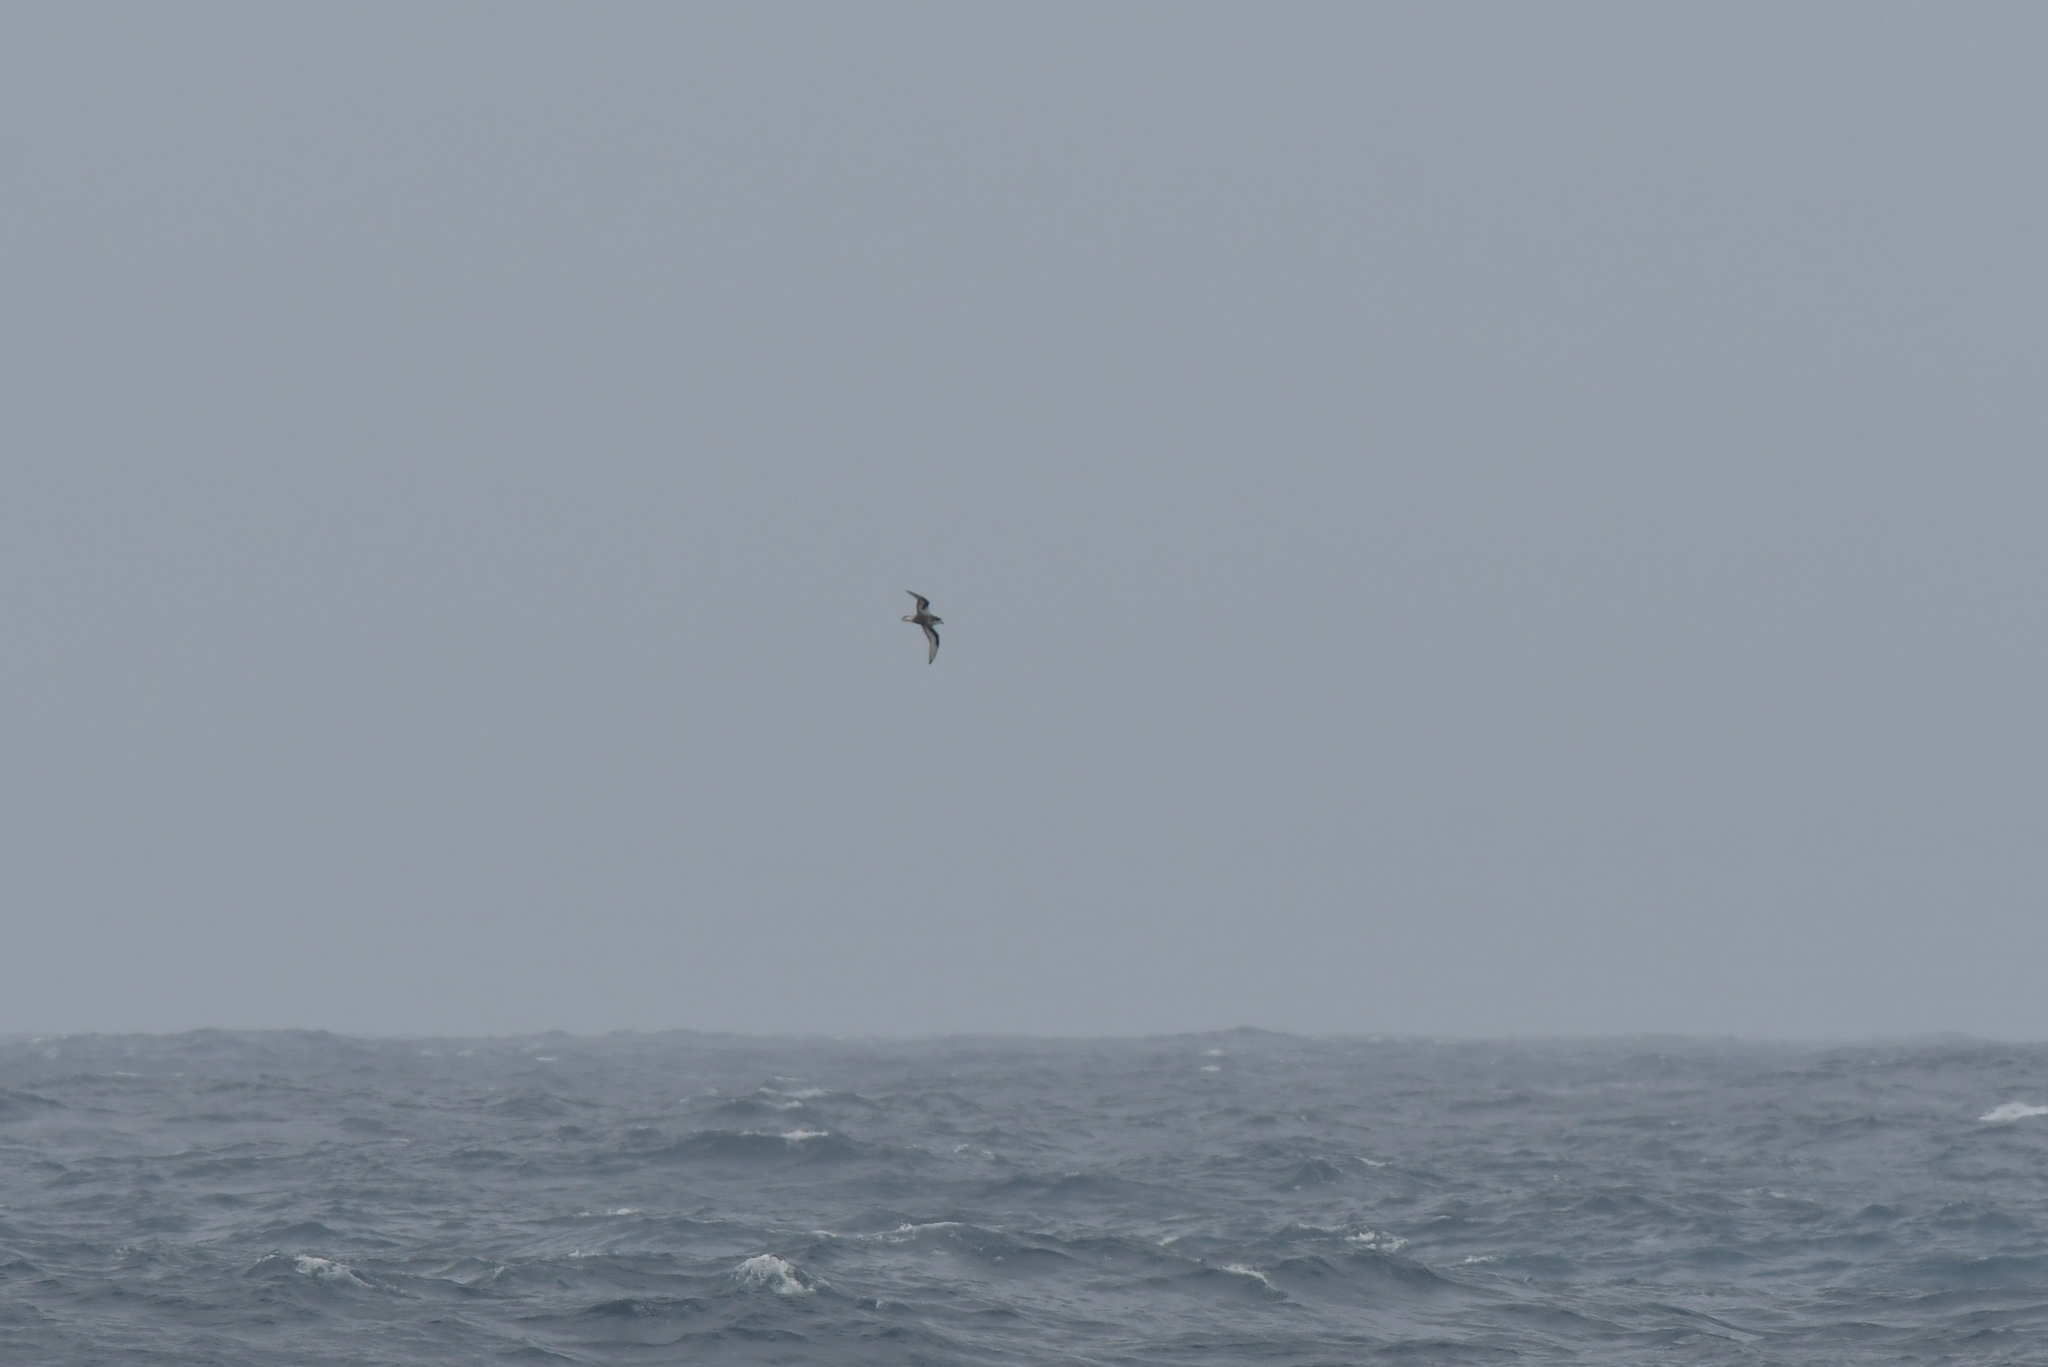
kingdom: Animalia
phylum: Chordata
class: Aves
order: Procellariiformes
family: Procellariidae
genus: Pterodroma
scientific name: Pterodroma inexpectata
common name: Mottled petrel
